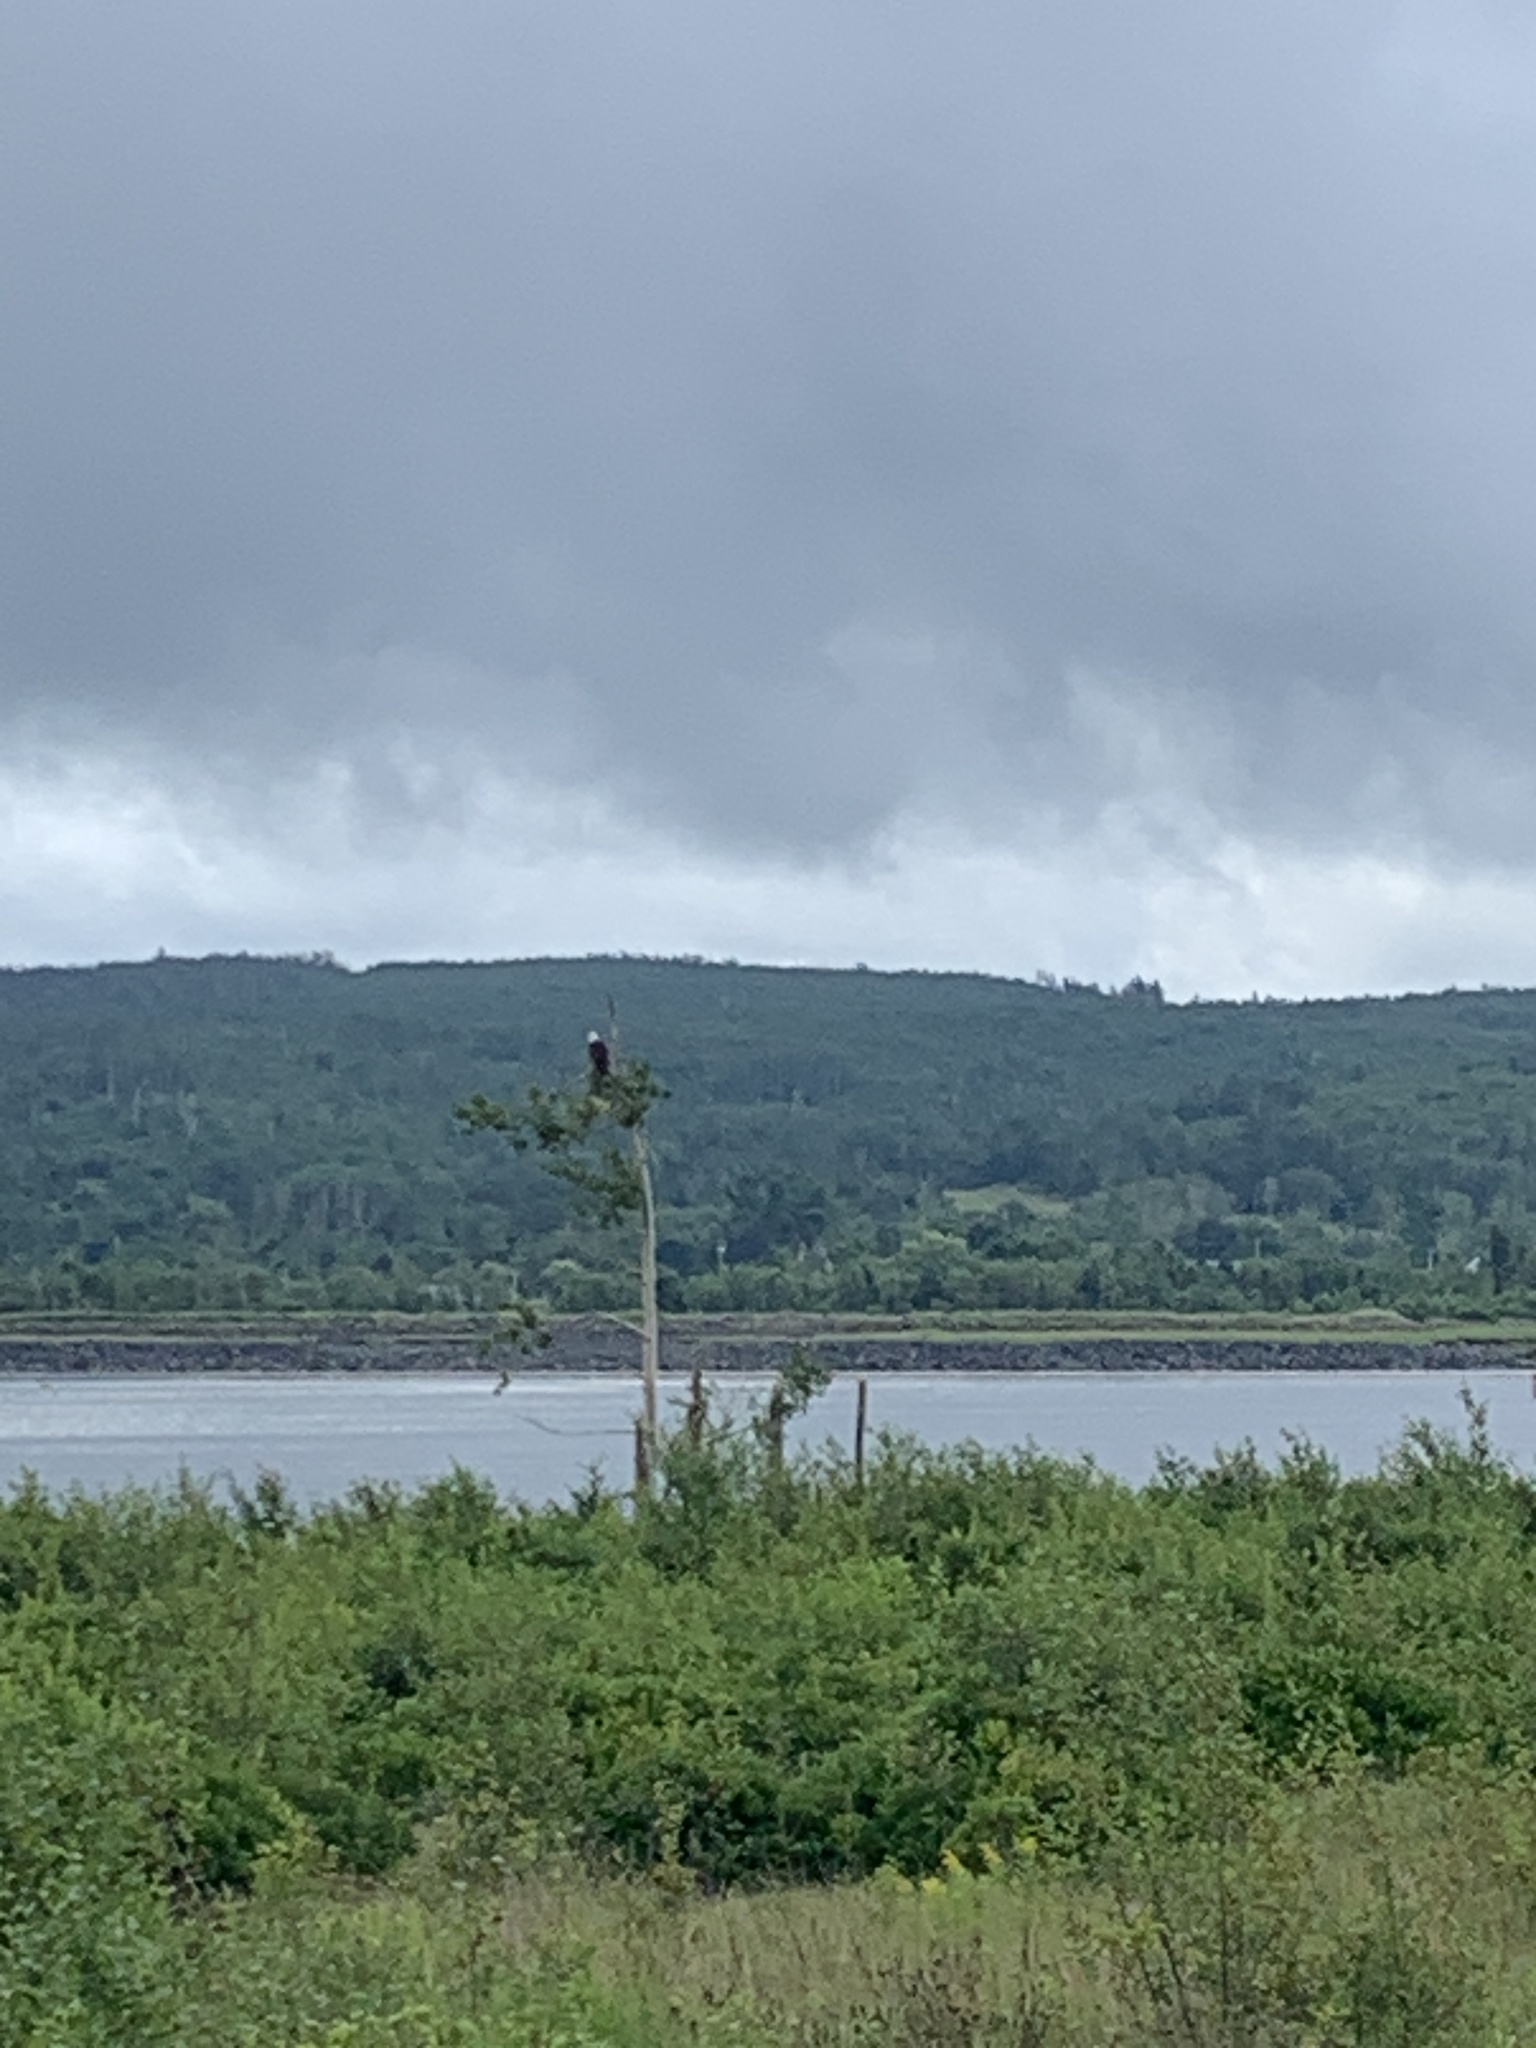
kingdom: Animalia
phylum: Chordata
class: Aves
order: Accipitriformes
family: Accipitridae
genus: Haliaeetus
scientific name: Haliaeetus leucocephalus
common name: Bald eagle
